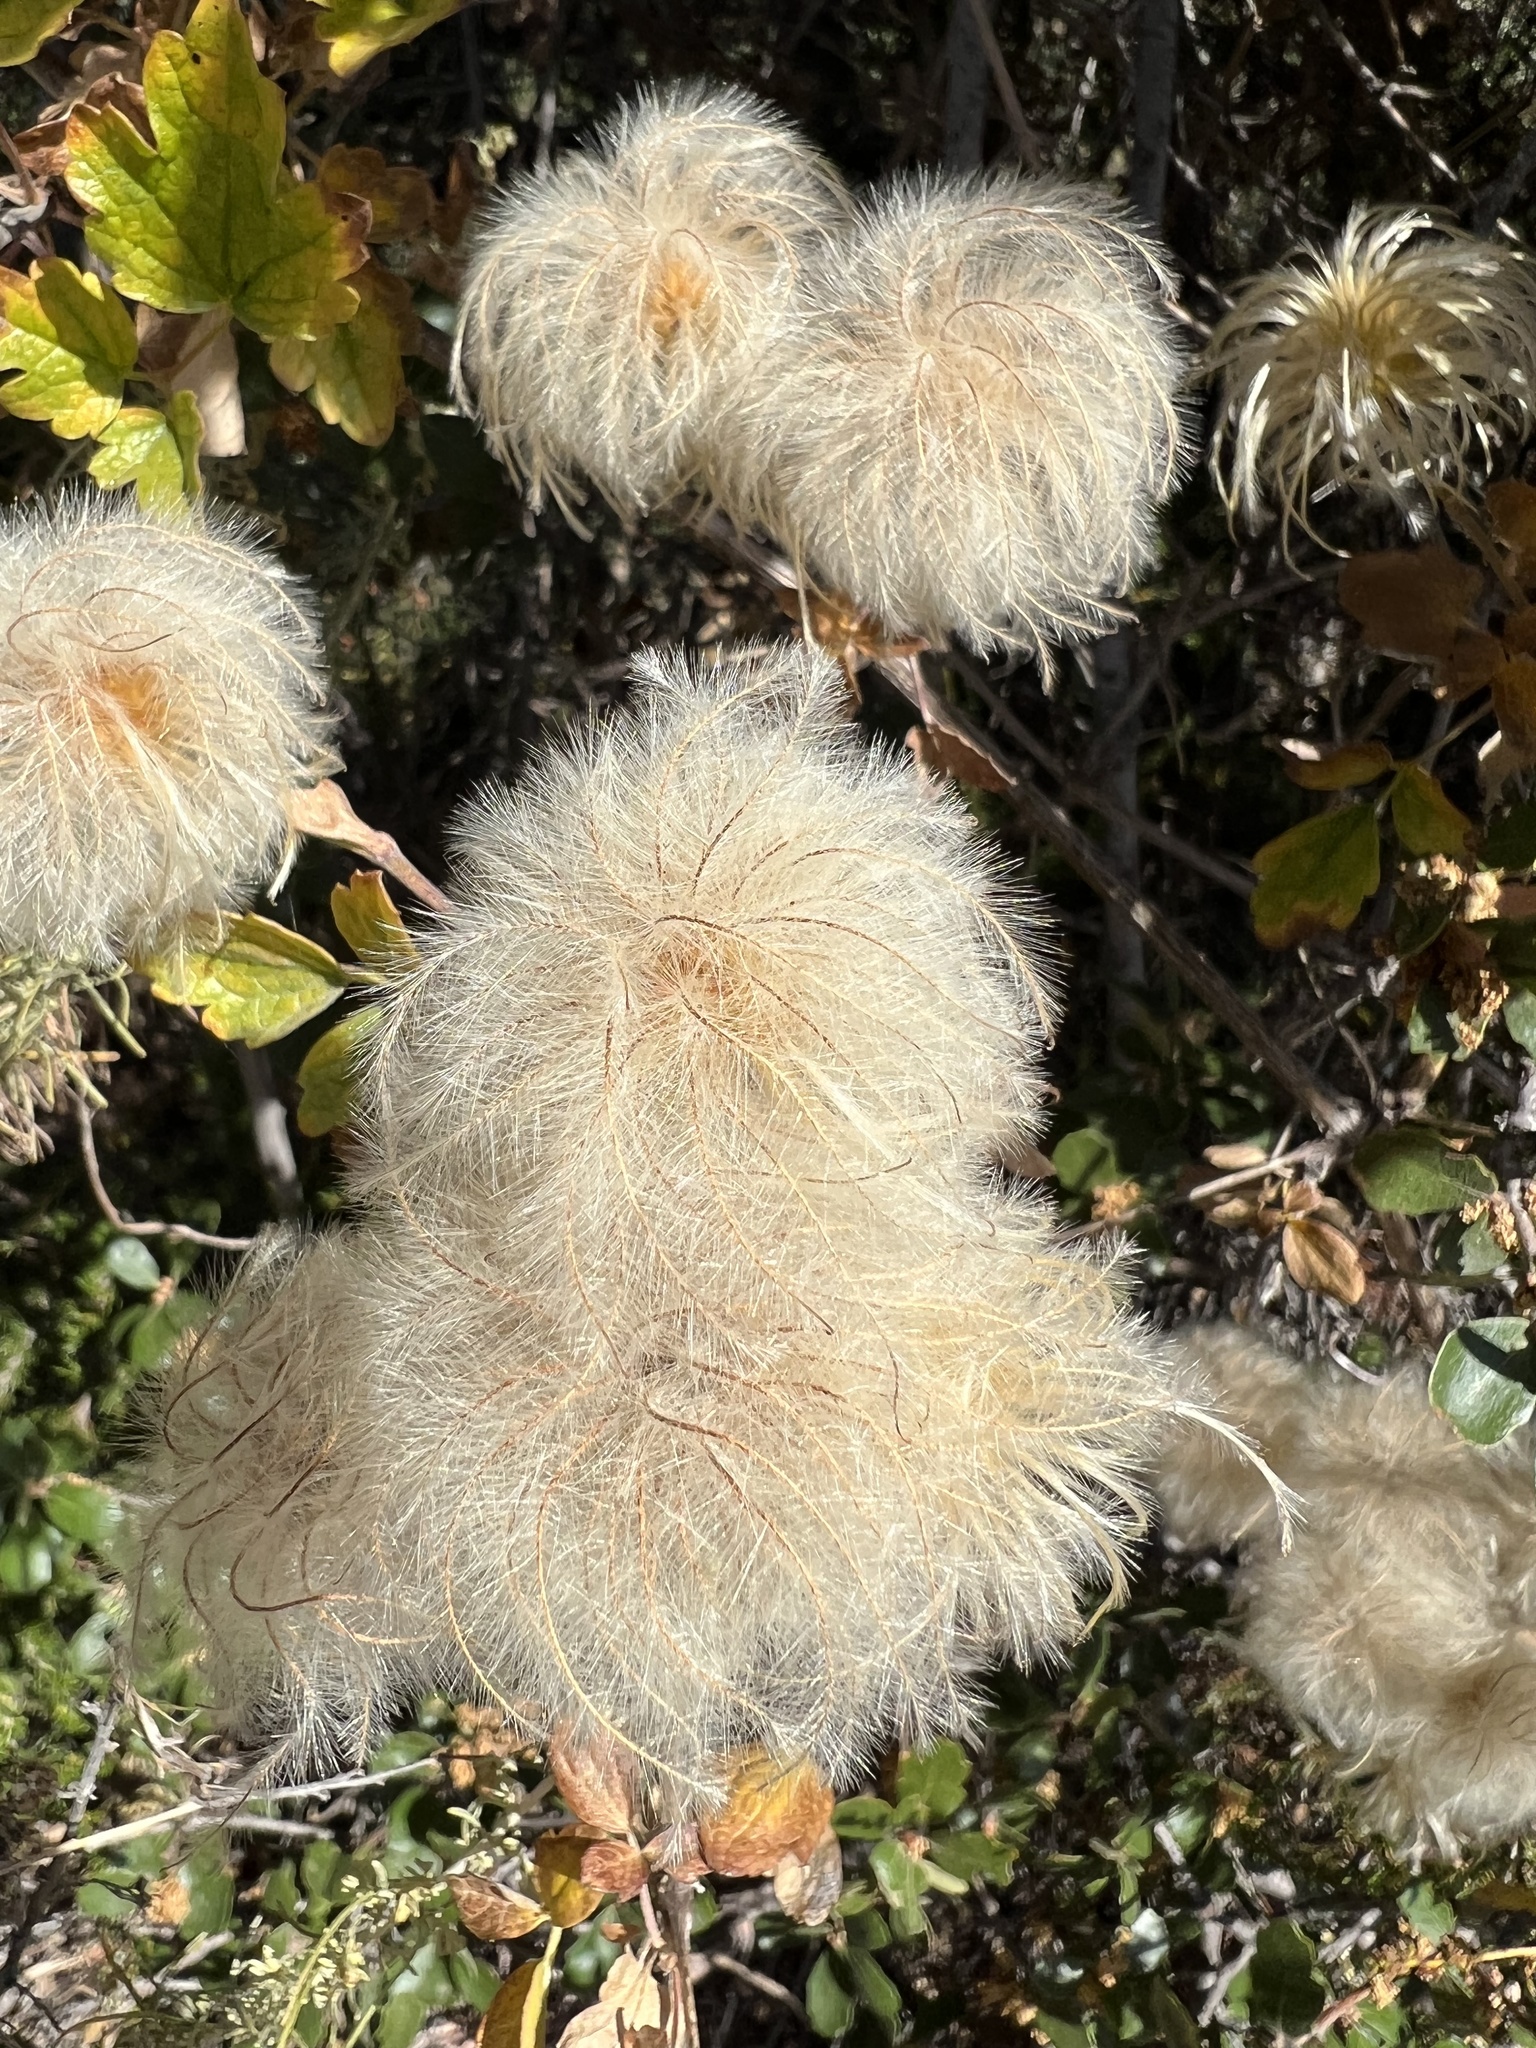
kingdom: Plantae
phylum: Tracheophyta
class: Magnoliopsida
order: Ranunculales
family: Ranunculaceae
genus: Clematis
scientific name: Clematis lasiantha
